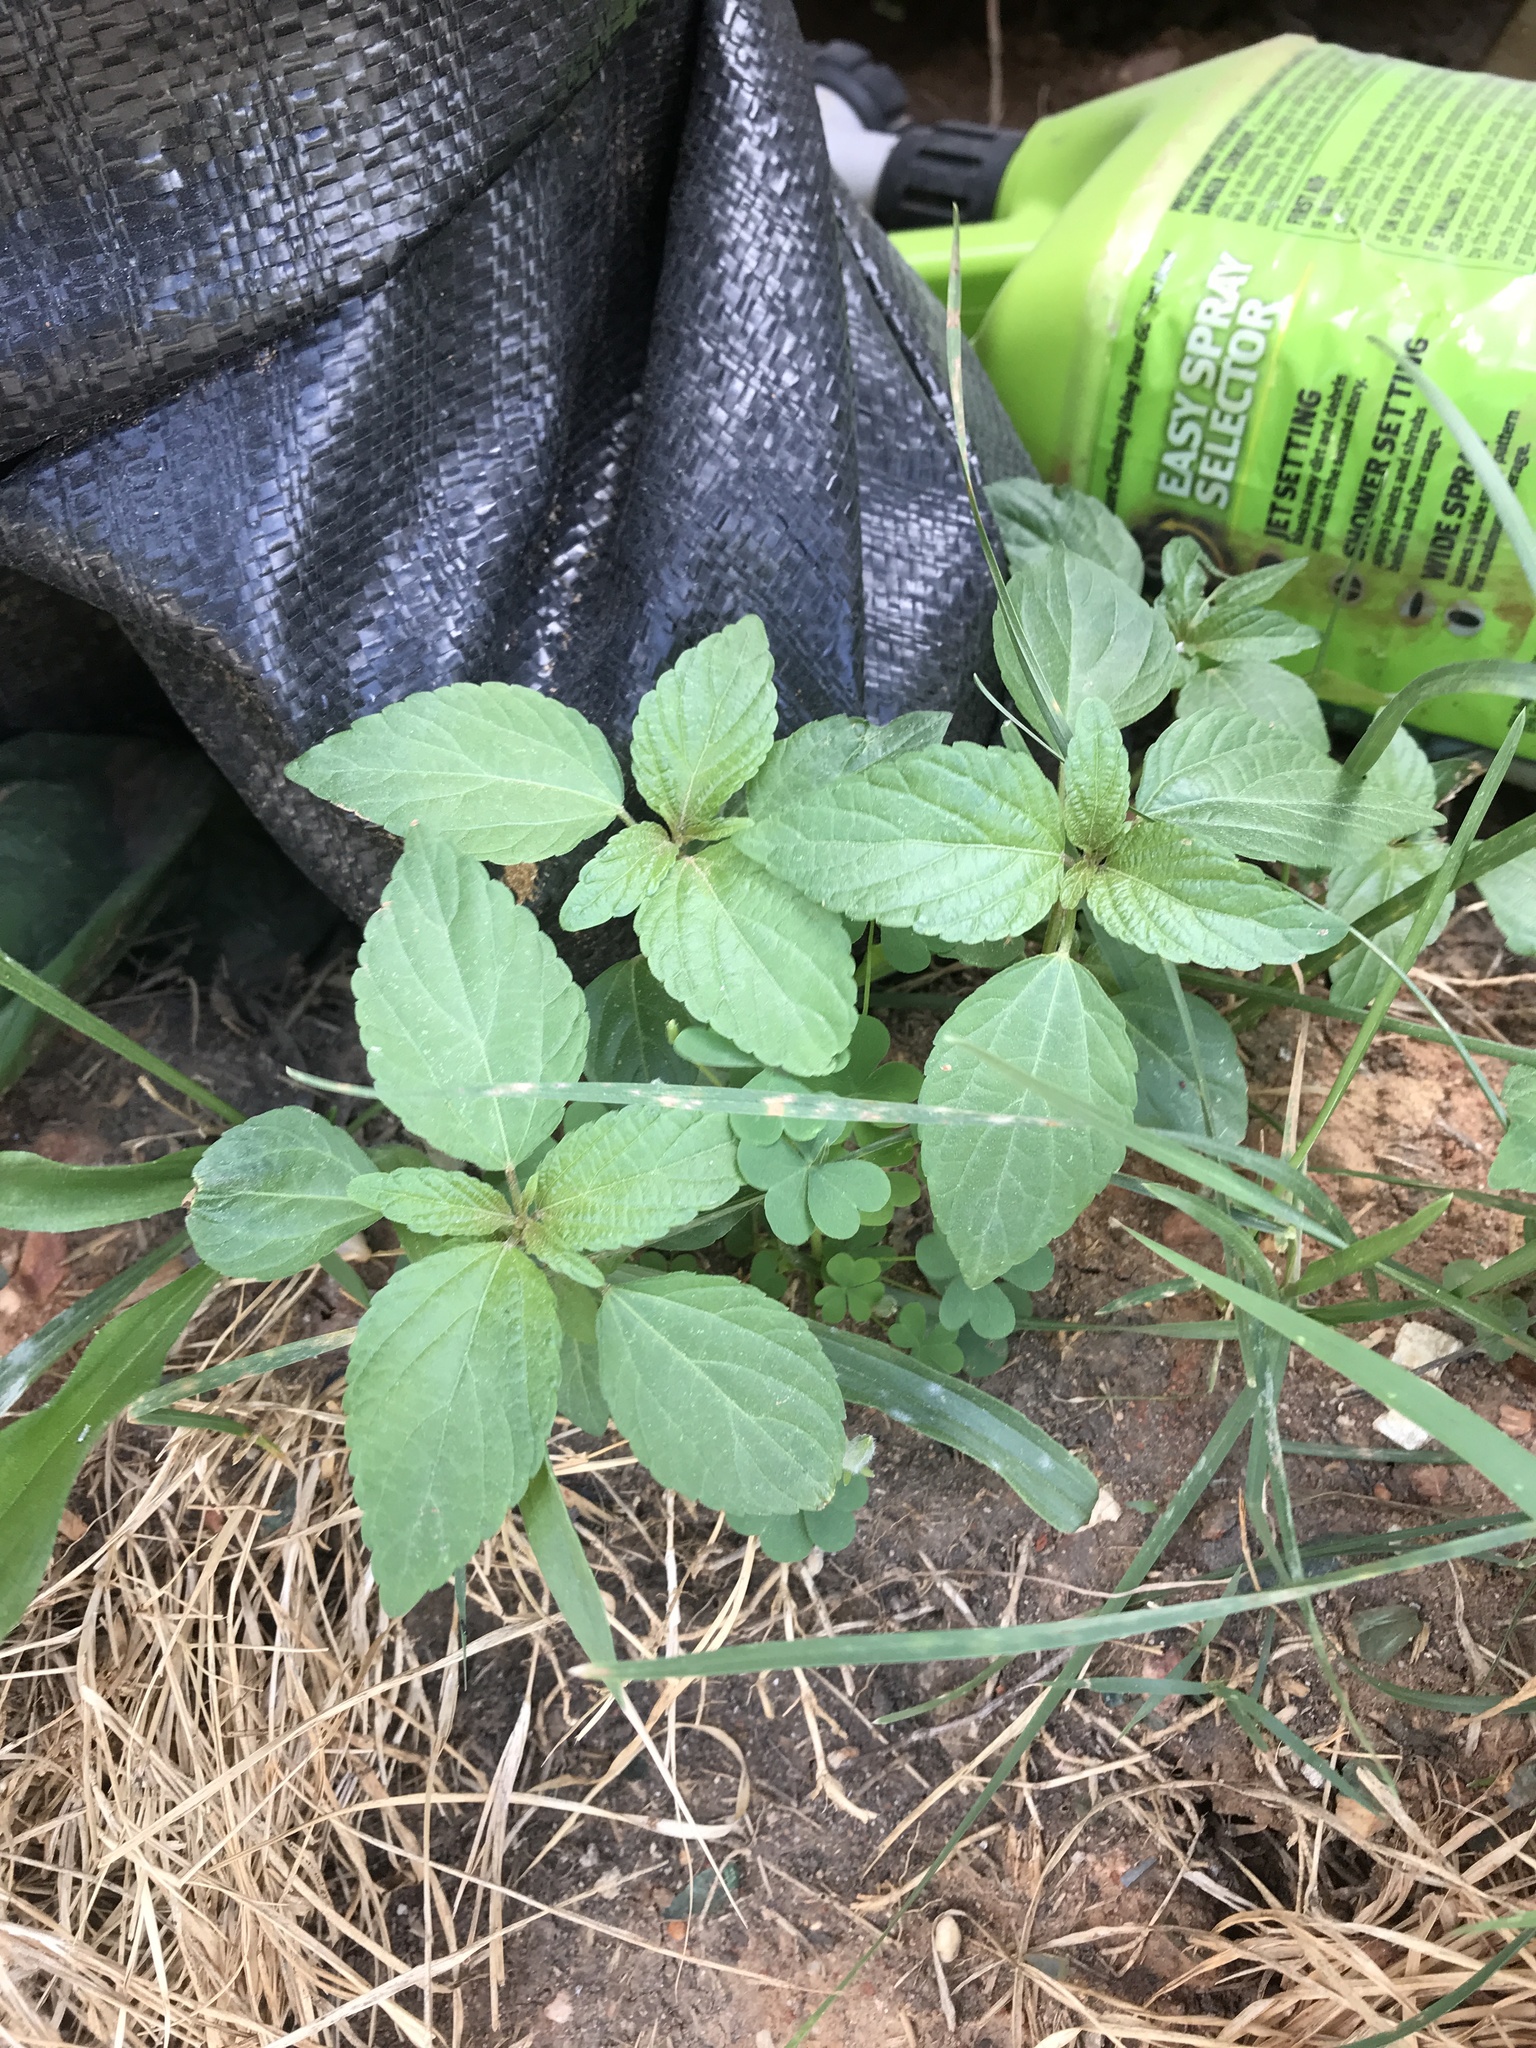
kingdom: Plantae
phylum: Tracheophyta
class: Magnoliopsida
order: Malpighiales
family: Euphorbiaceae
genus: Acalypha
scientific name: Acalypha rhomboidea
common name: Rhombic copperleaf
